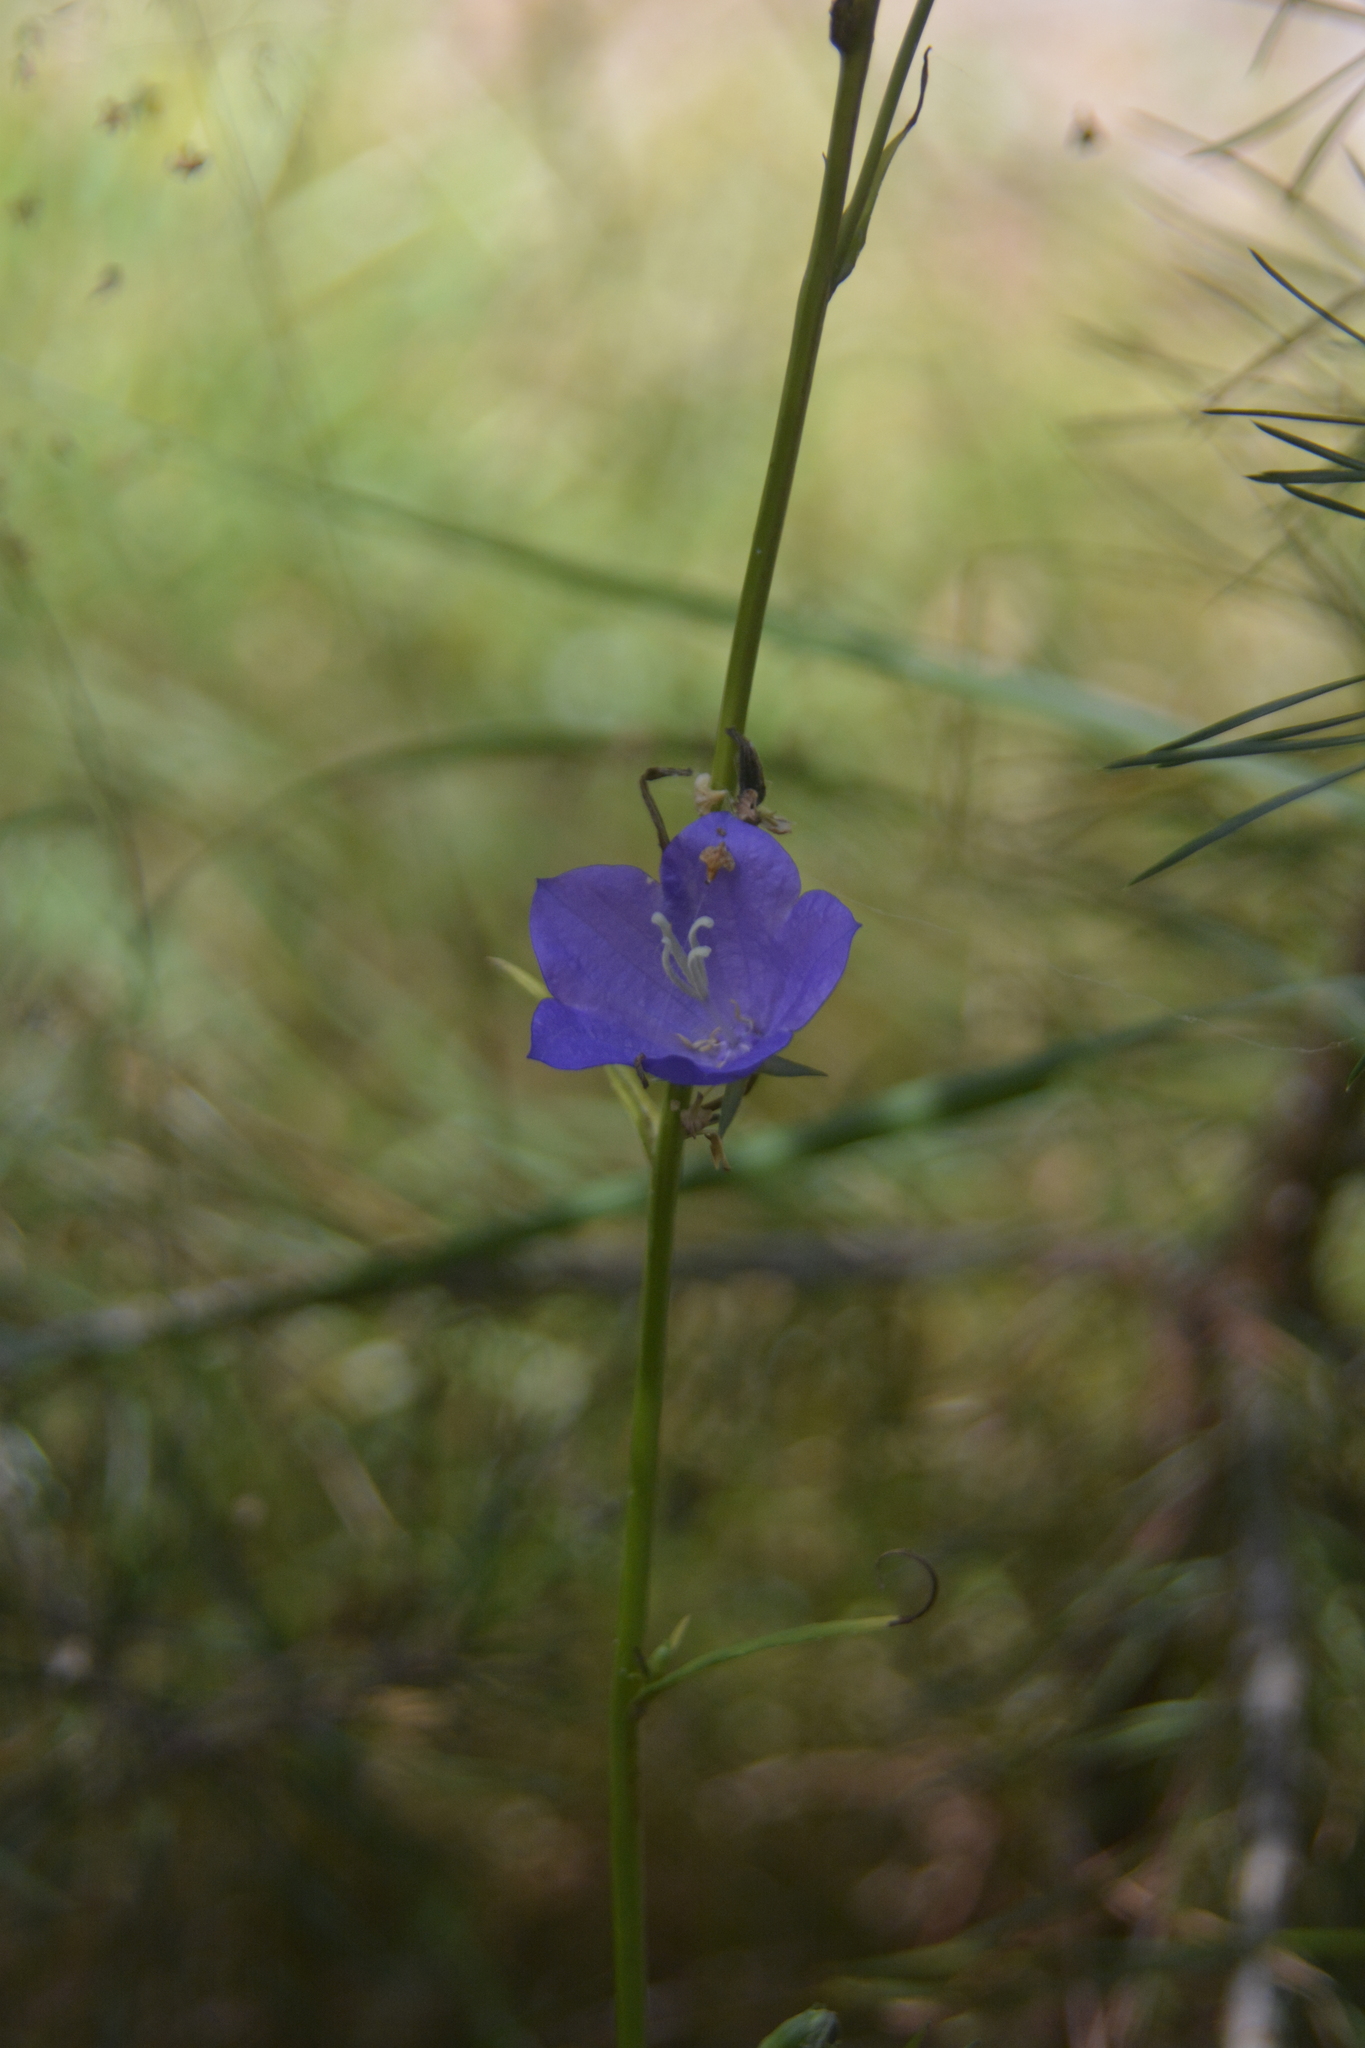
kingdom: Plantae
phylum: Tracheophyta
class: Magnoliopsida
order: Asterales
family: Campanulaceae
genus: Campanula
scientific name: Campanula persicifolia
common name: Peach-leaved bellflower
